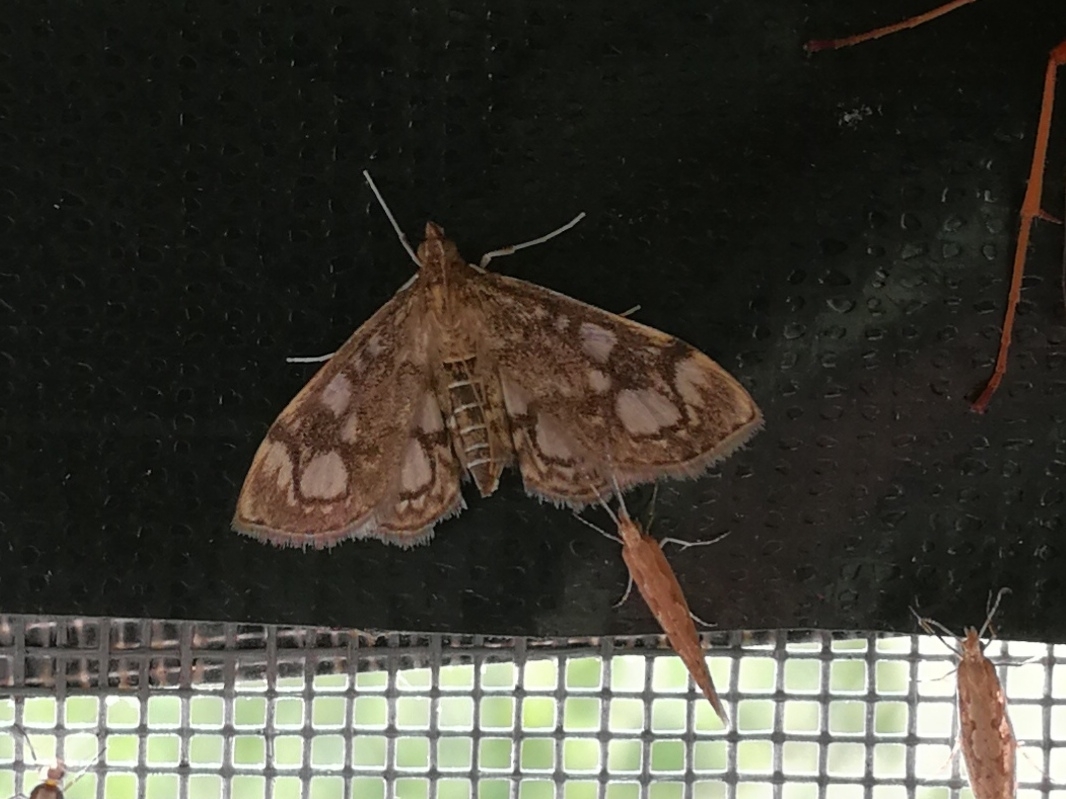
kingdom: Animalia
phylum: Arthropoda
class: Insecta
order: Lepidoptera
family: Crambidae
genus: Anania
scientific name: Anania coronata
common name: Elder pearl
